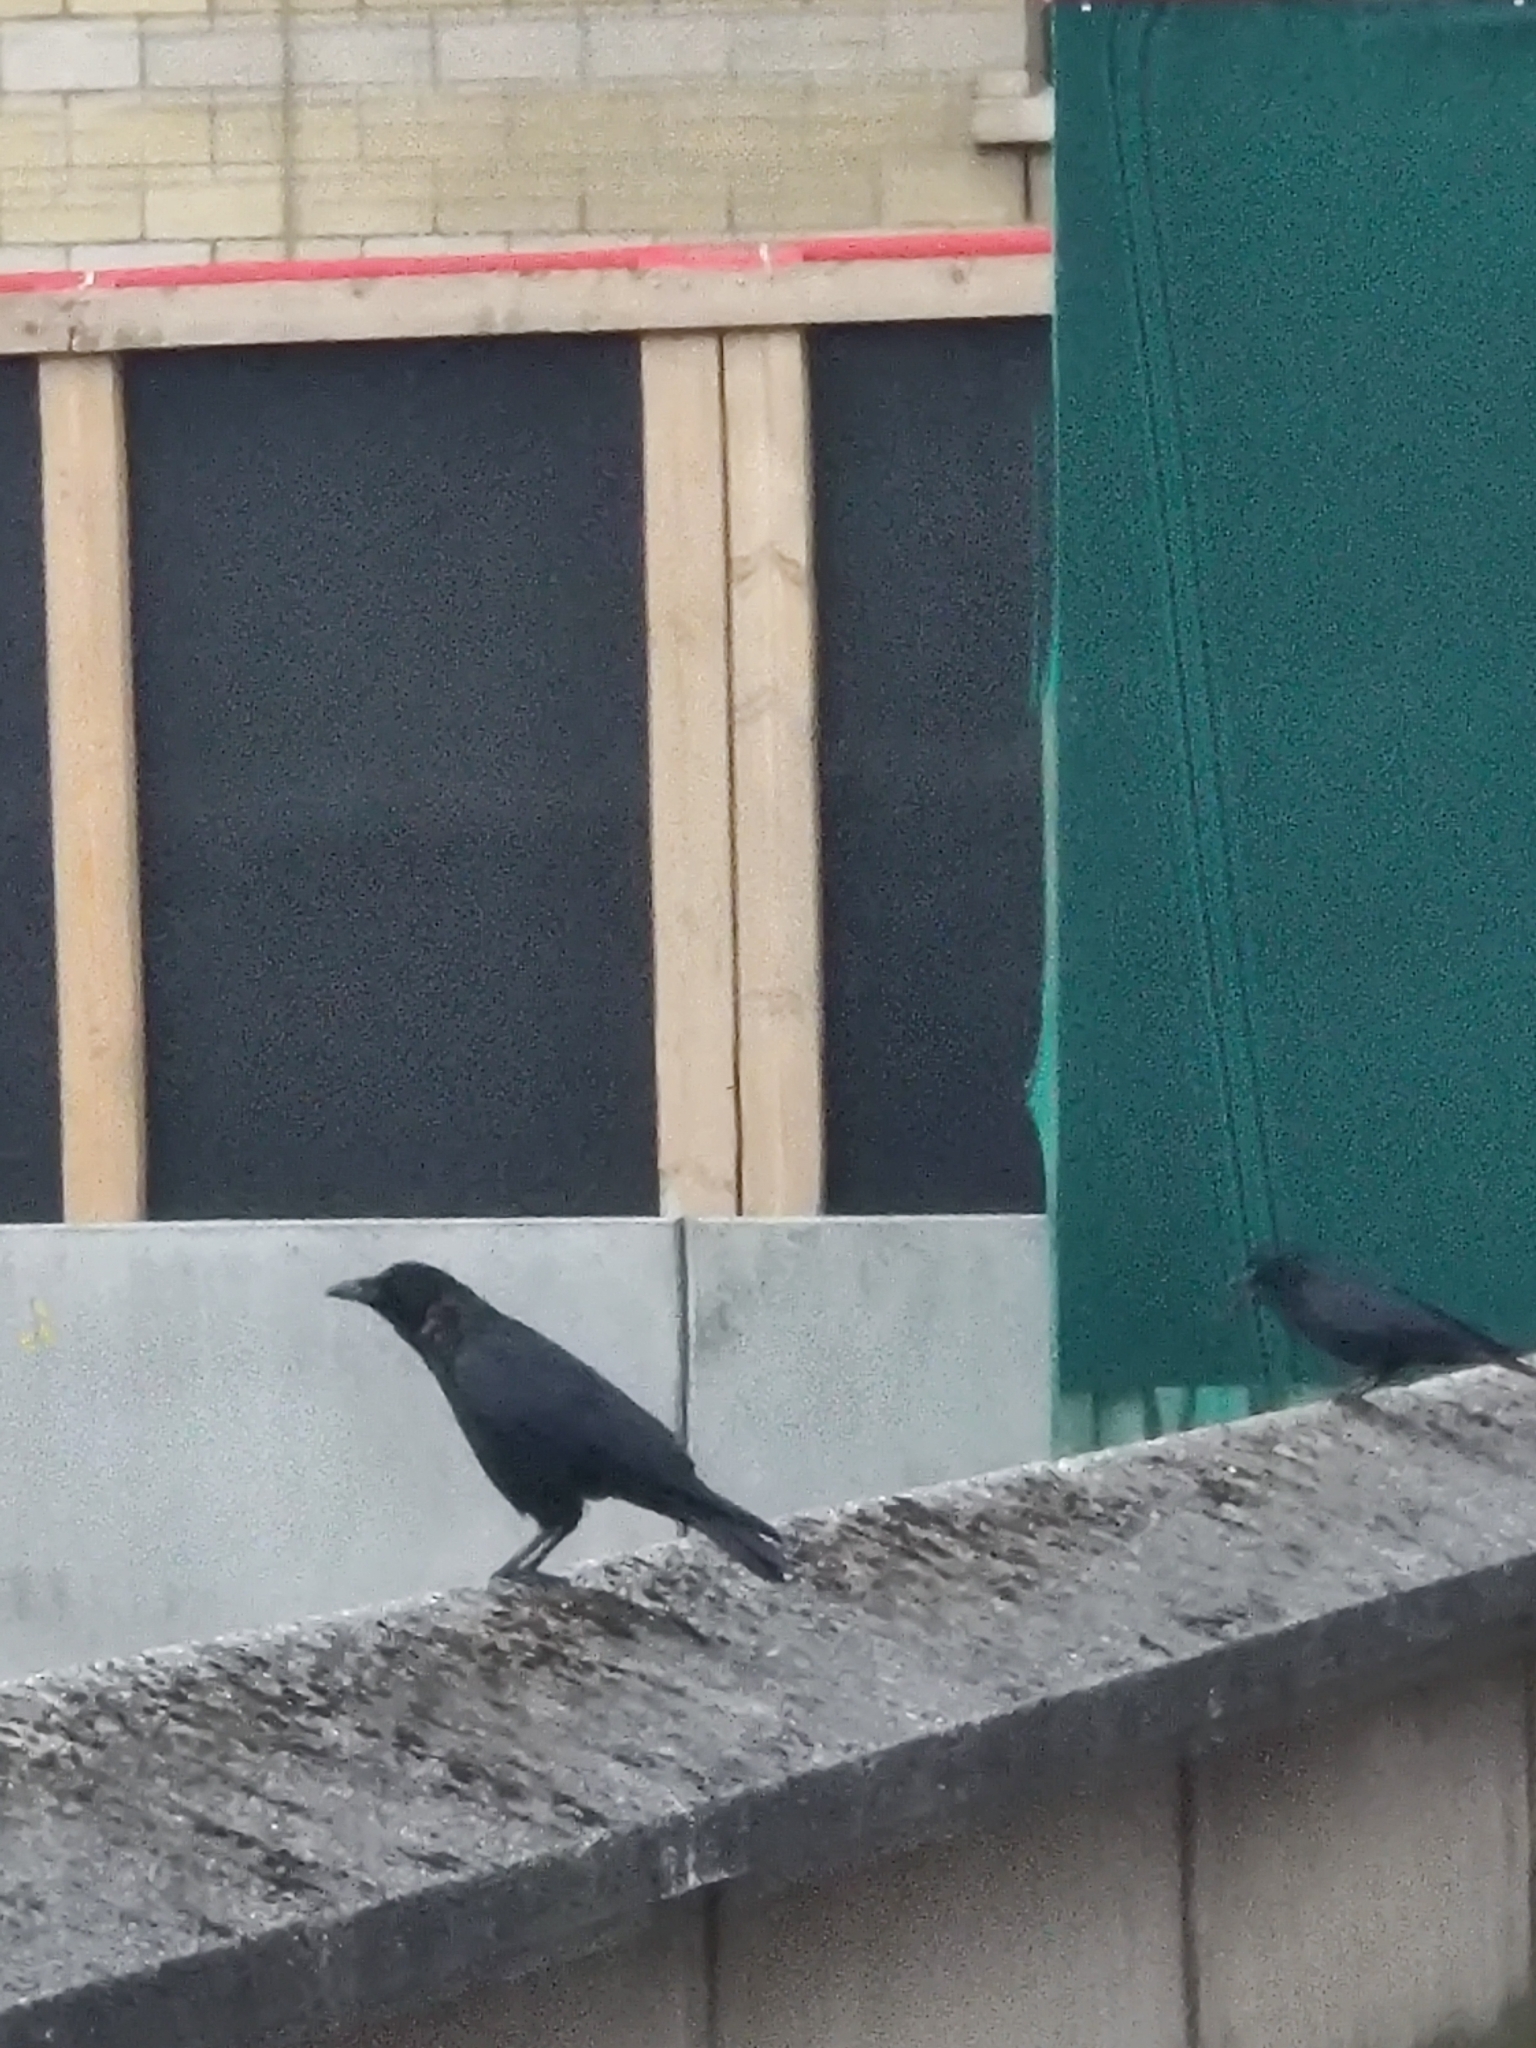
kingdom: Animalia
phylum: Chordata
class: Aves
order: Passeriformes
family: Corvidae
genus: Corvus
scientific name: Corvus corone
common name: Carrion crow
